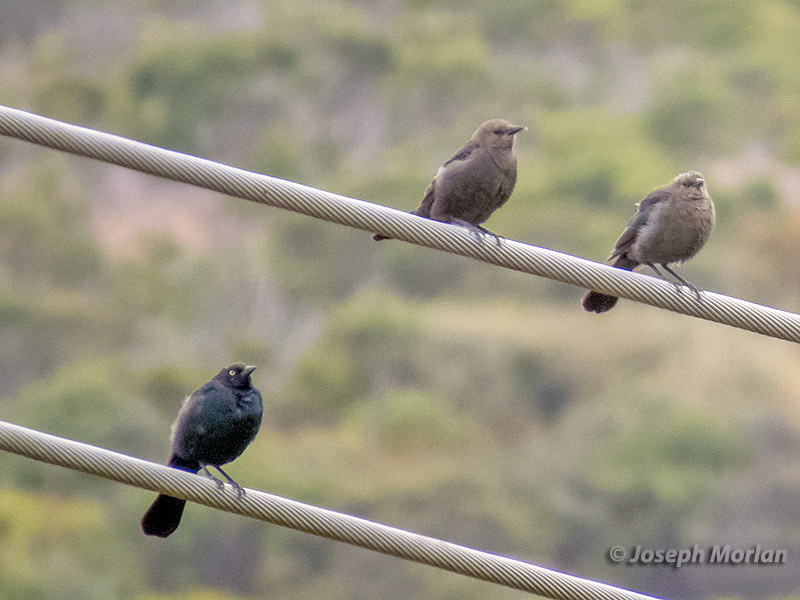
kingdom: Animalia
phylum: Chordata
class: Aves
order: Passeriformes
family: Icteridae
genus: Euphagus
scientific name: Euphagus cyanocephalus
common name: Brewer's blackbird
